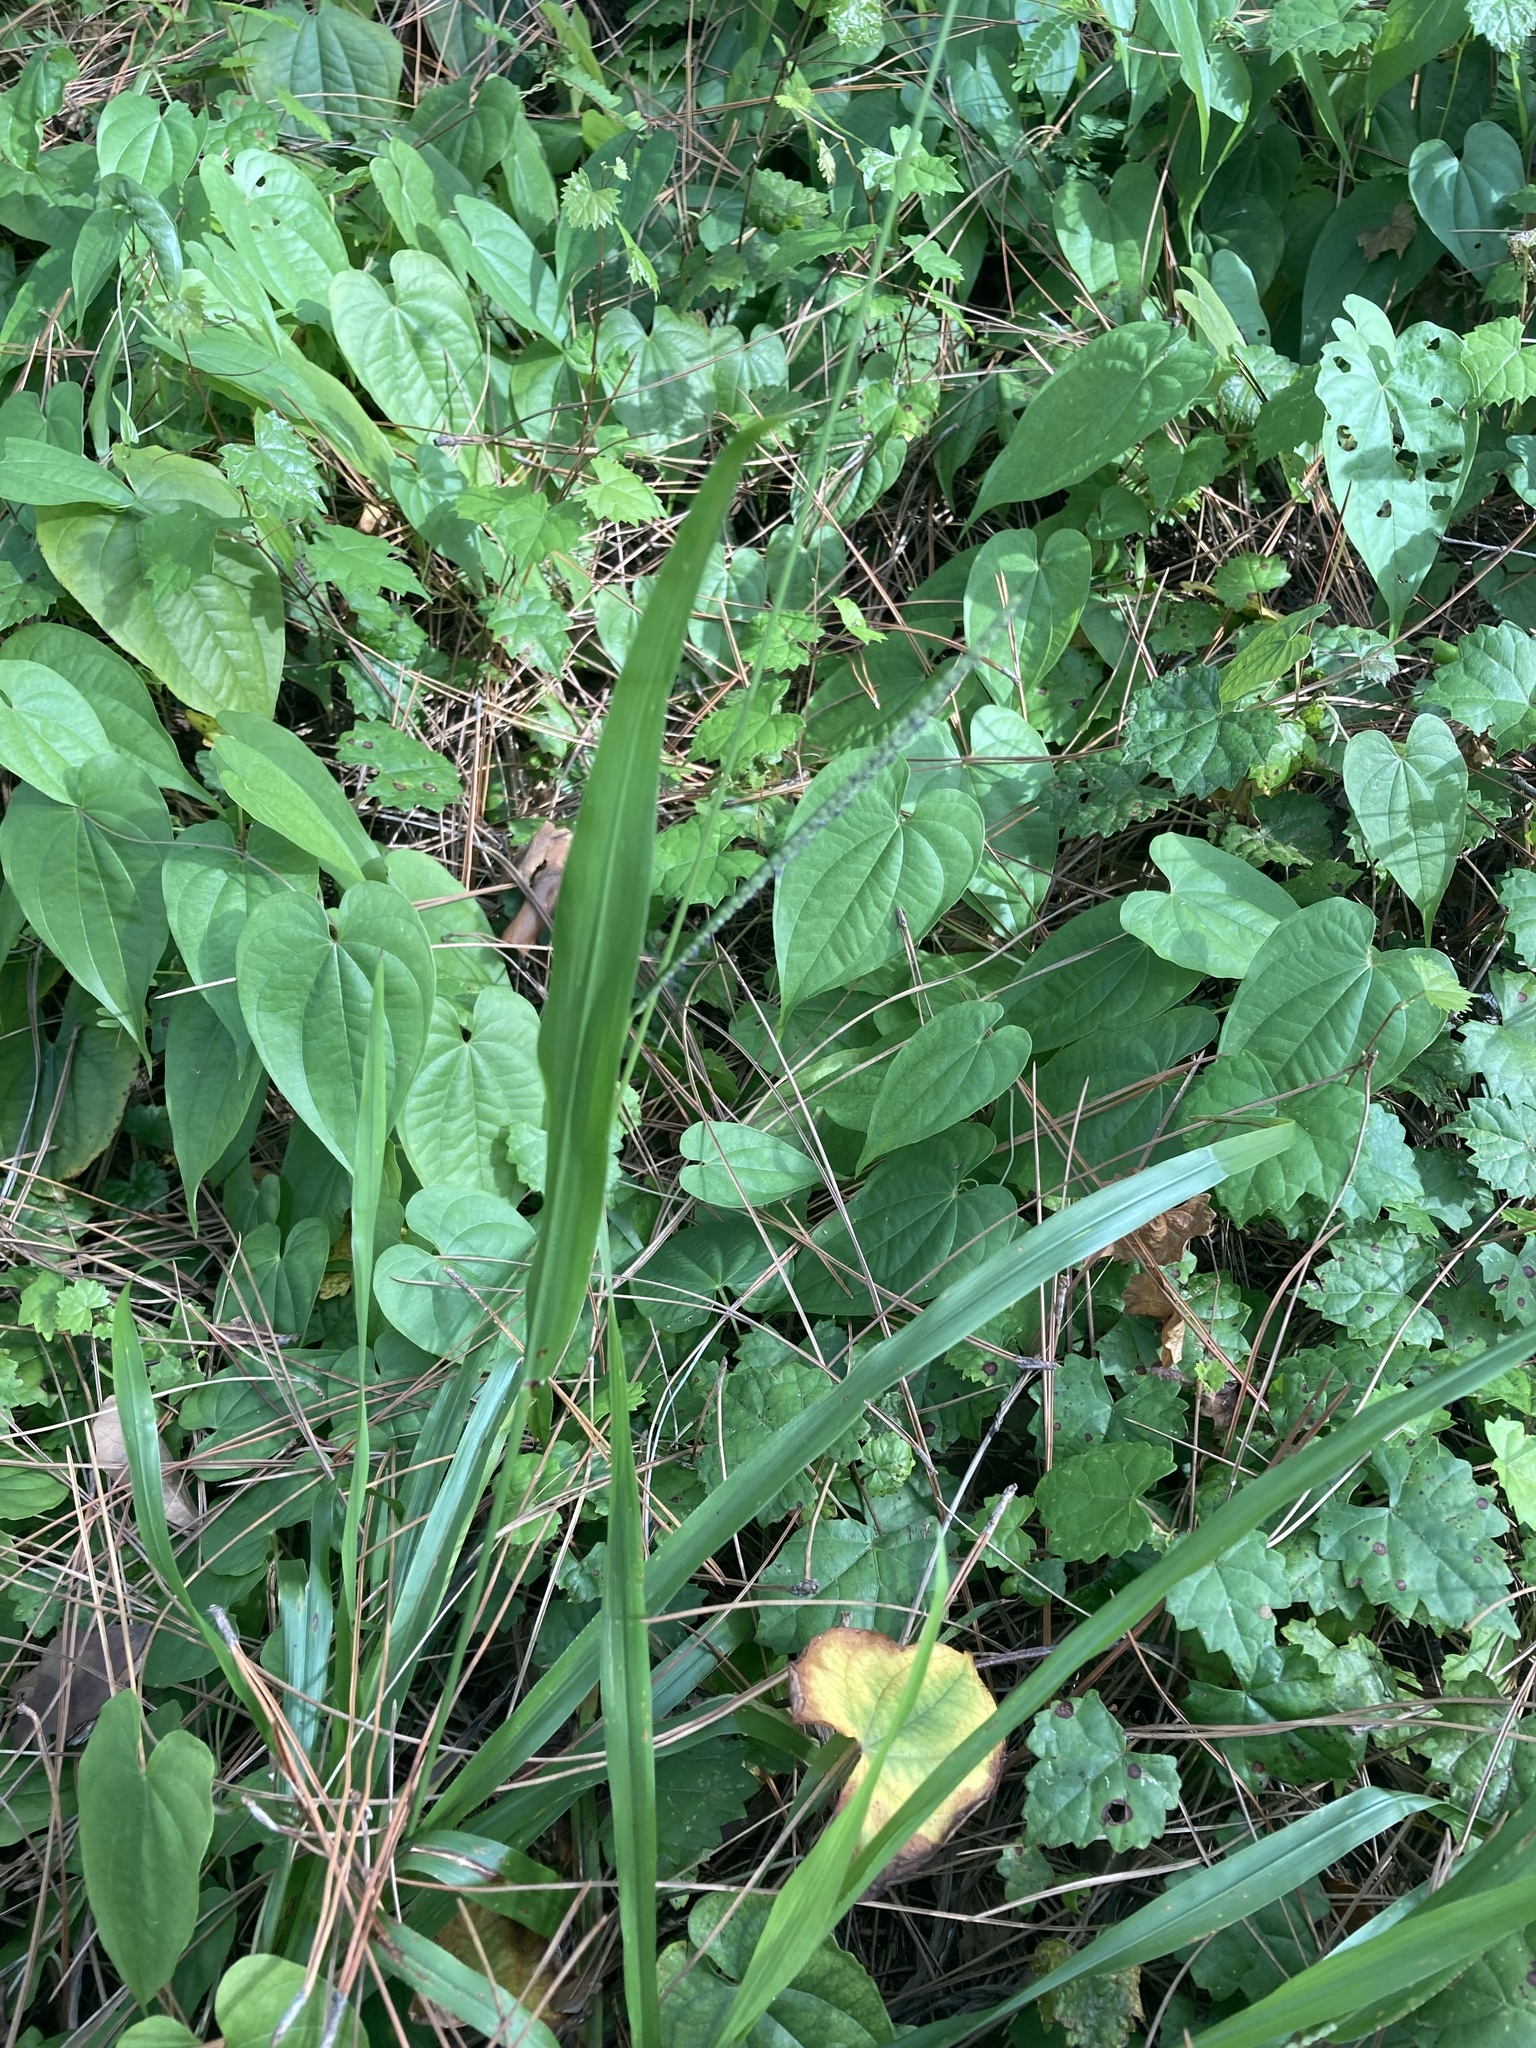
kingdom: Plantae
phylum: Tracheophyta
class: Liliopsida
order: Dioscoreales
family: Dioscoreaceae
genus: Dioscorea
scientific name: Dioscorea bulbifera
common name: Air yam
